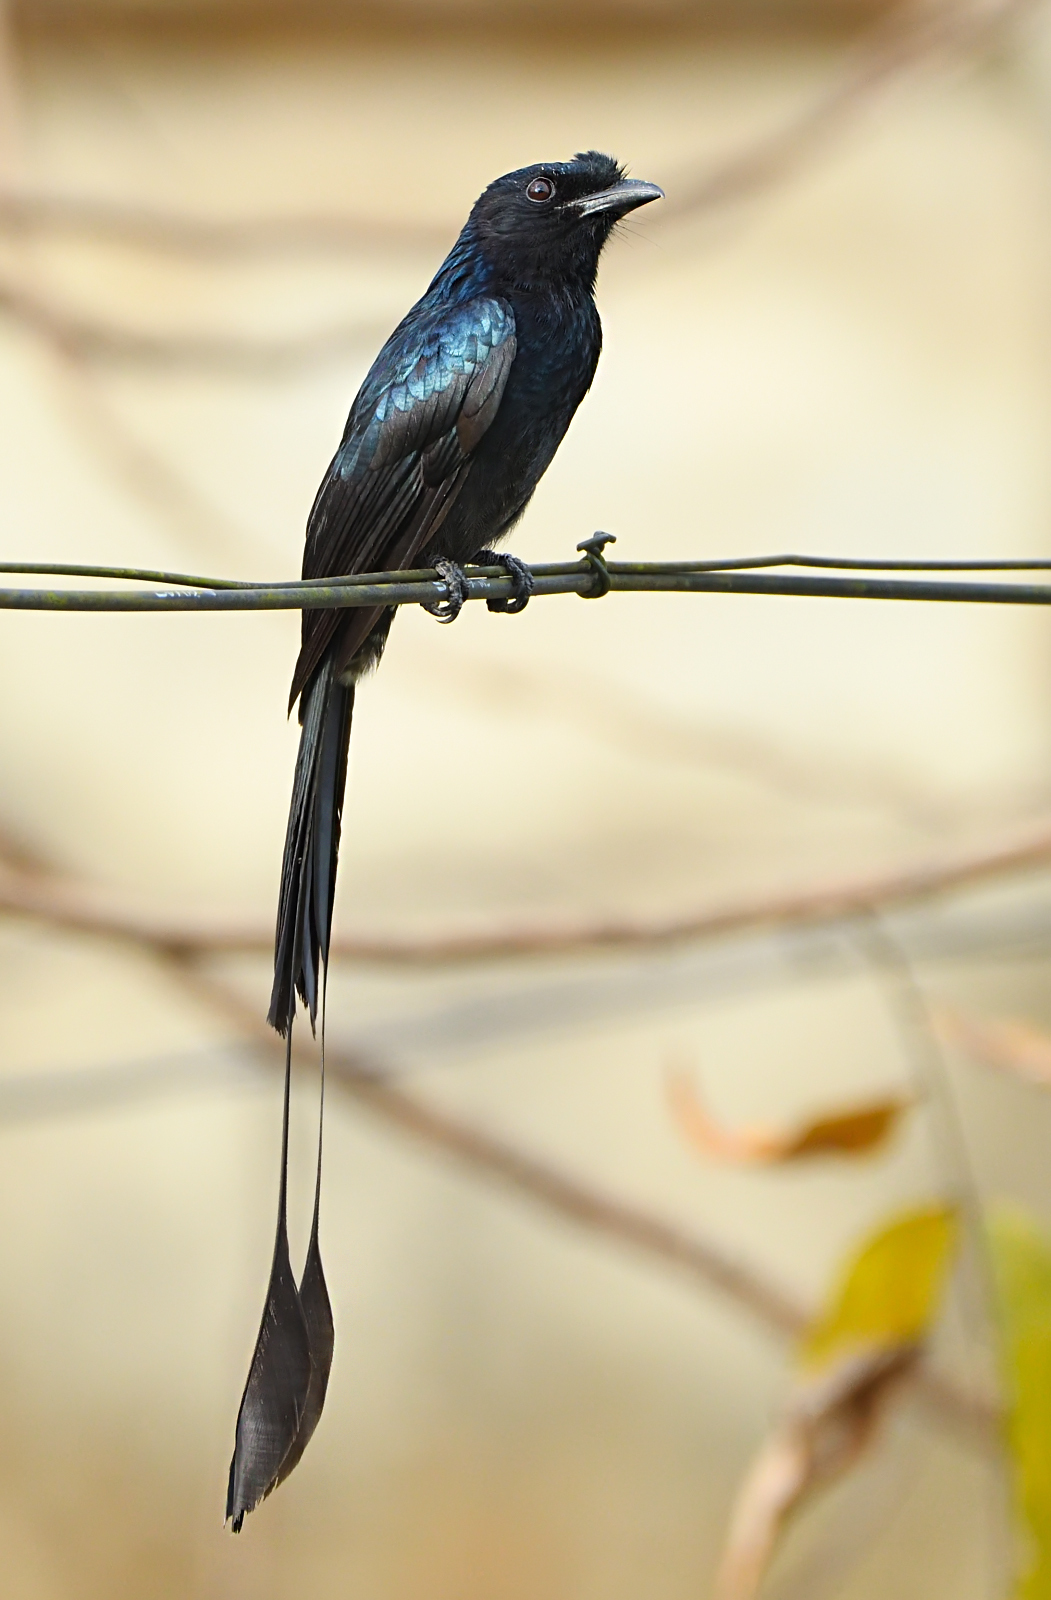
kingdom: Animalia
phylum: Chordata
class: Aves
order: Passeriformes
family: Dicruridae
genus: Dicrurus
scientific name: Dicrurus paradiseus
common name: Greater racket-tailed drongo
